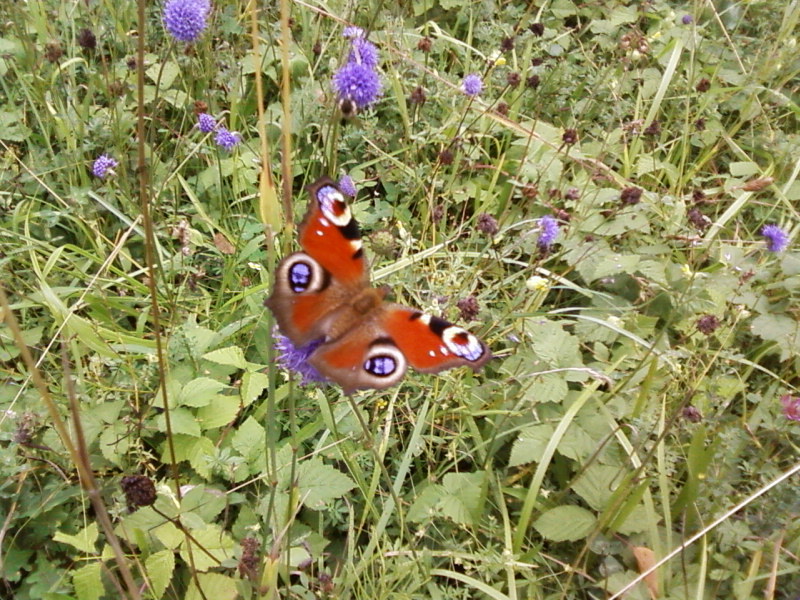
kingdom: Animalia
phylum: Arthropoda
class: Insecta
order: Lepidoptera
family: Nymphalidae
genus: Aglais
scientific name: Aglais io
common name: Peacock
